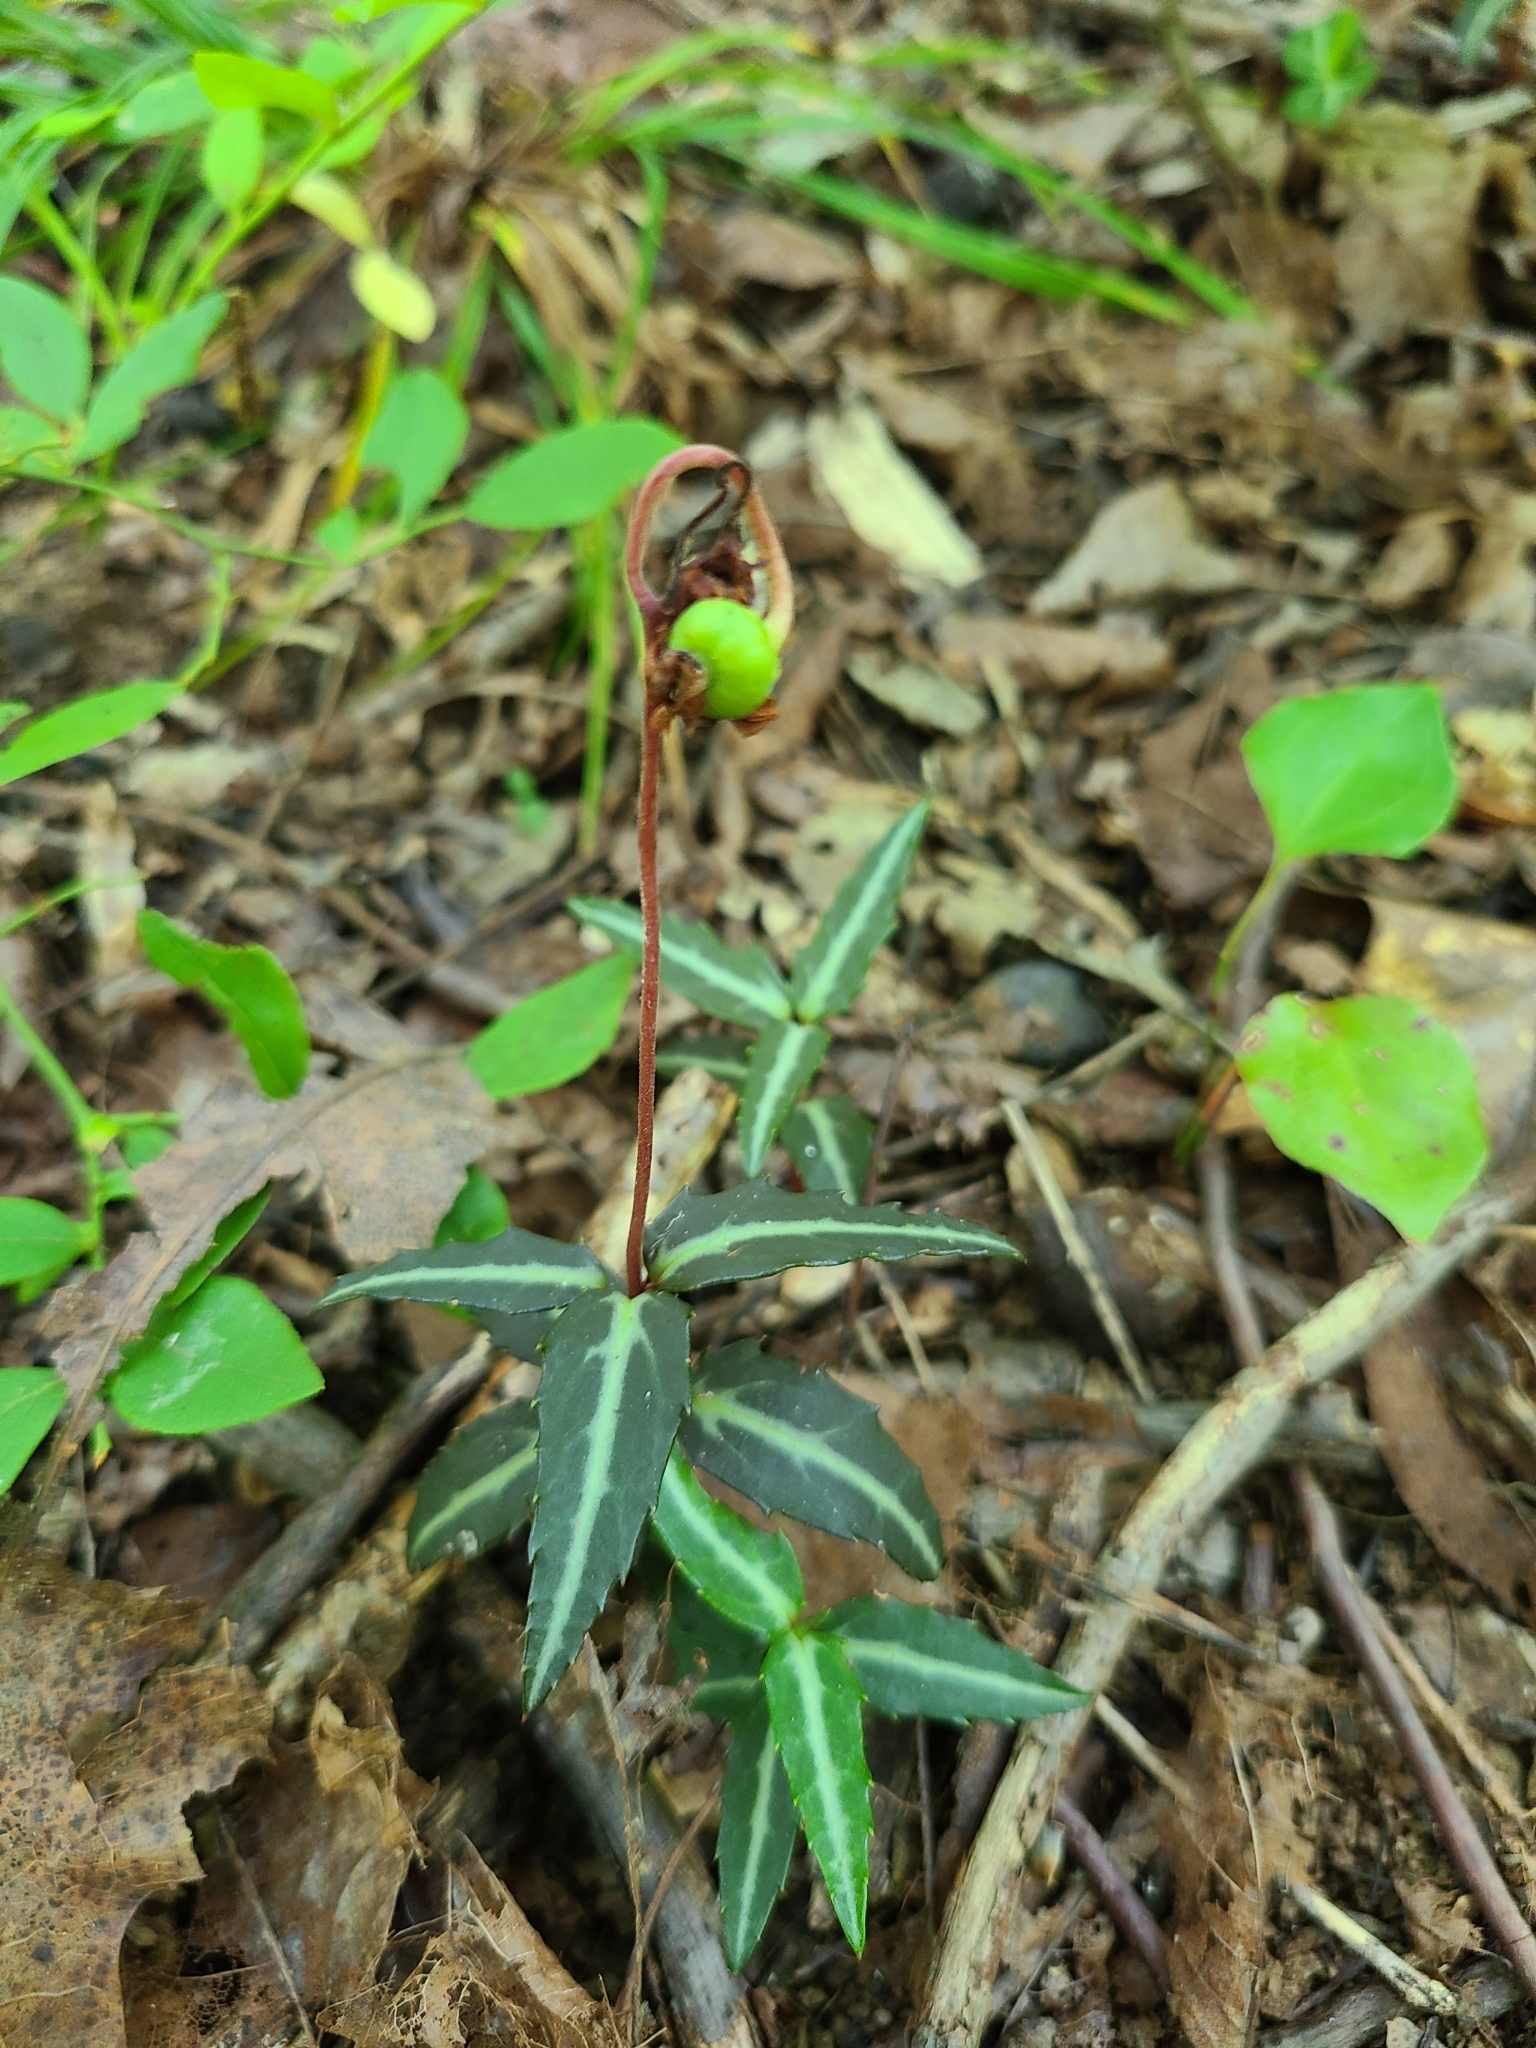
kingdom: Plantae
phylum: Tracheophyta
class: Magnoliopsida
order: Ericales
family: Ericaceae
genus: Chimaphila
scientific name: Chimaphila maculata
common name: Spotted pipsissewa
